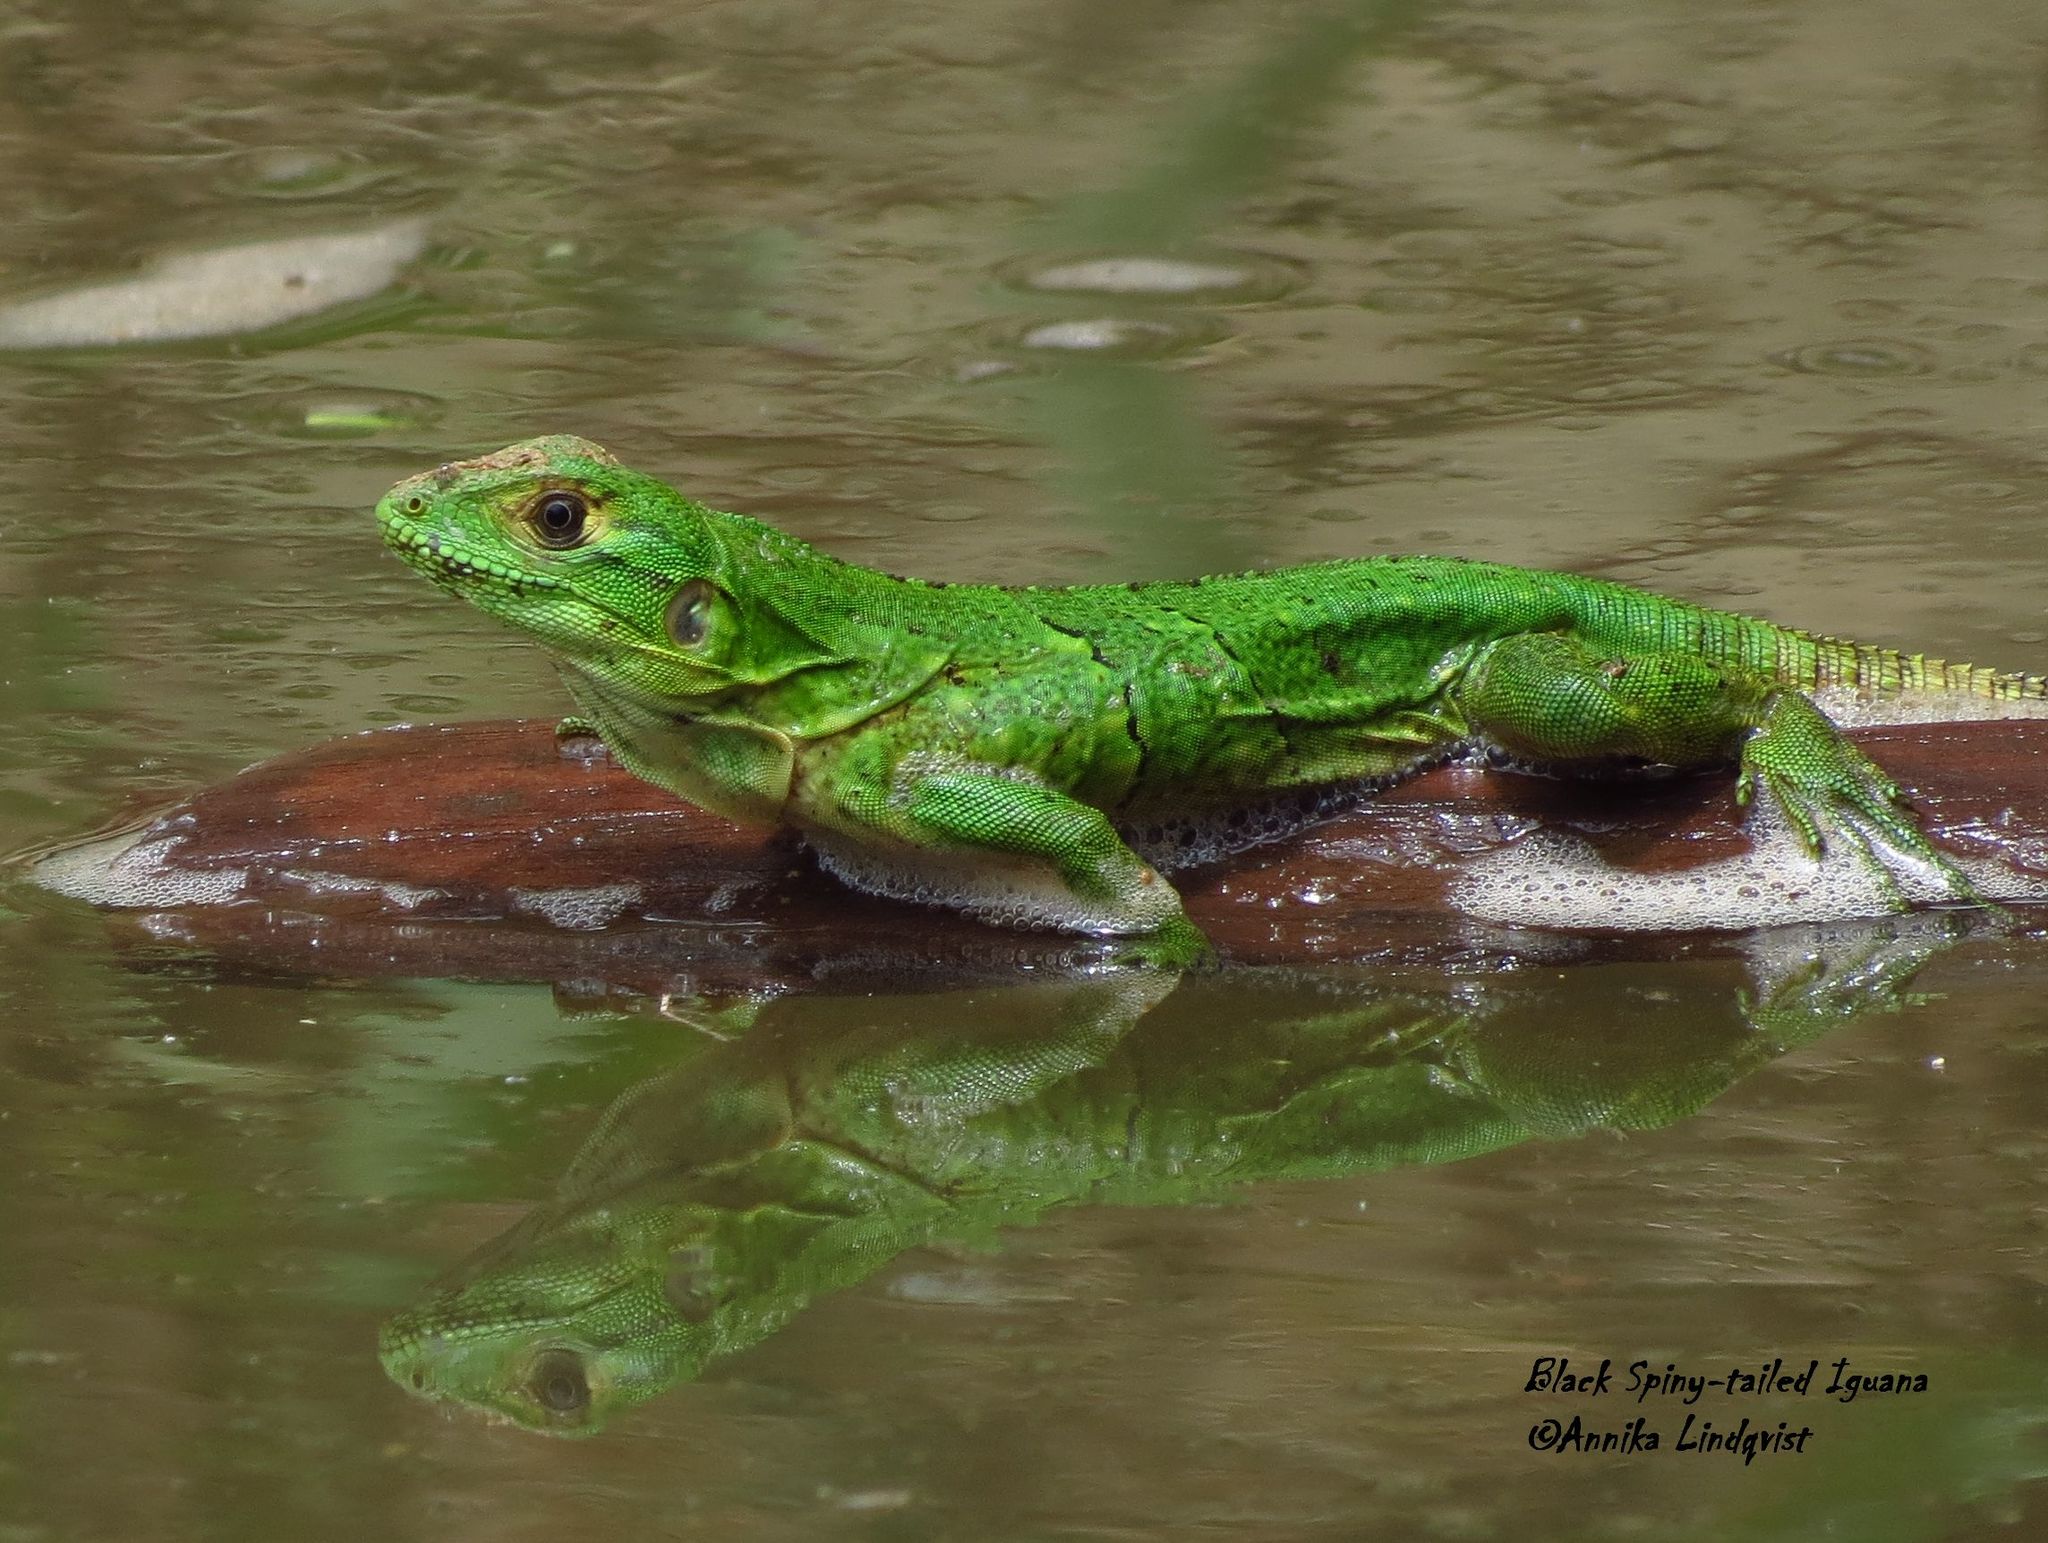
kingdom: Animalia
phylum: Chordata
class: Squamata
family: Iguanidae
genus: Ctenosaura
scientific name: Ctenosaura similis
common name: Black spiny-tailed iguana
